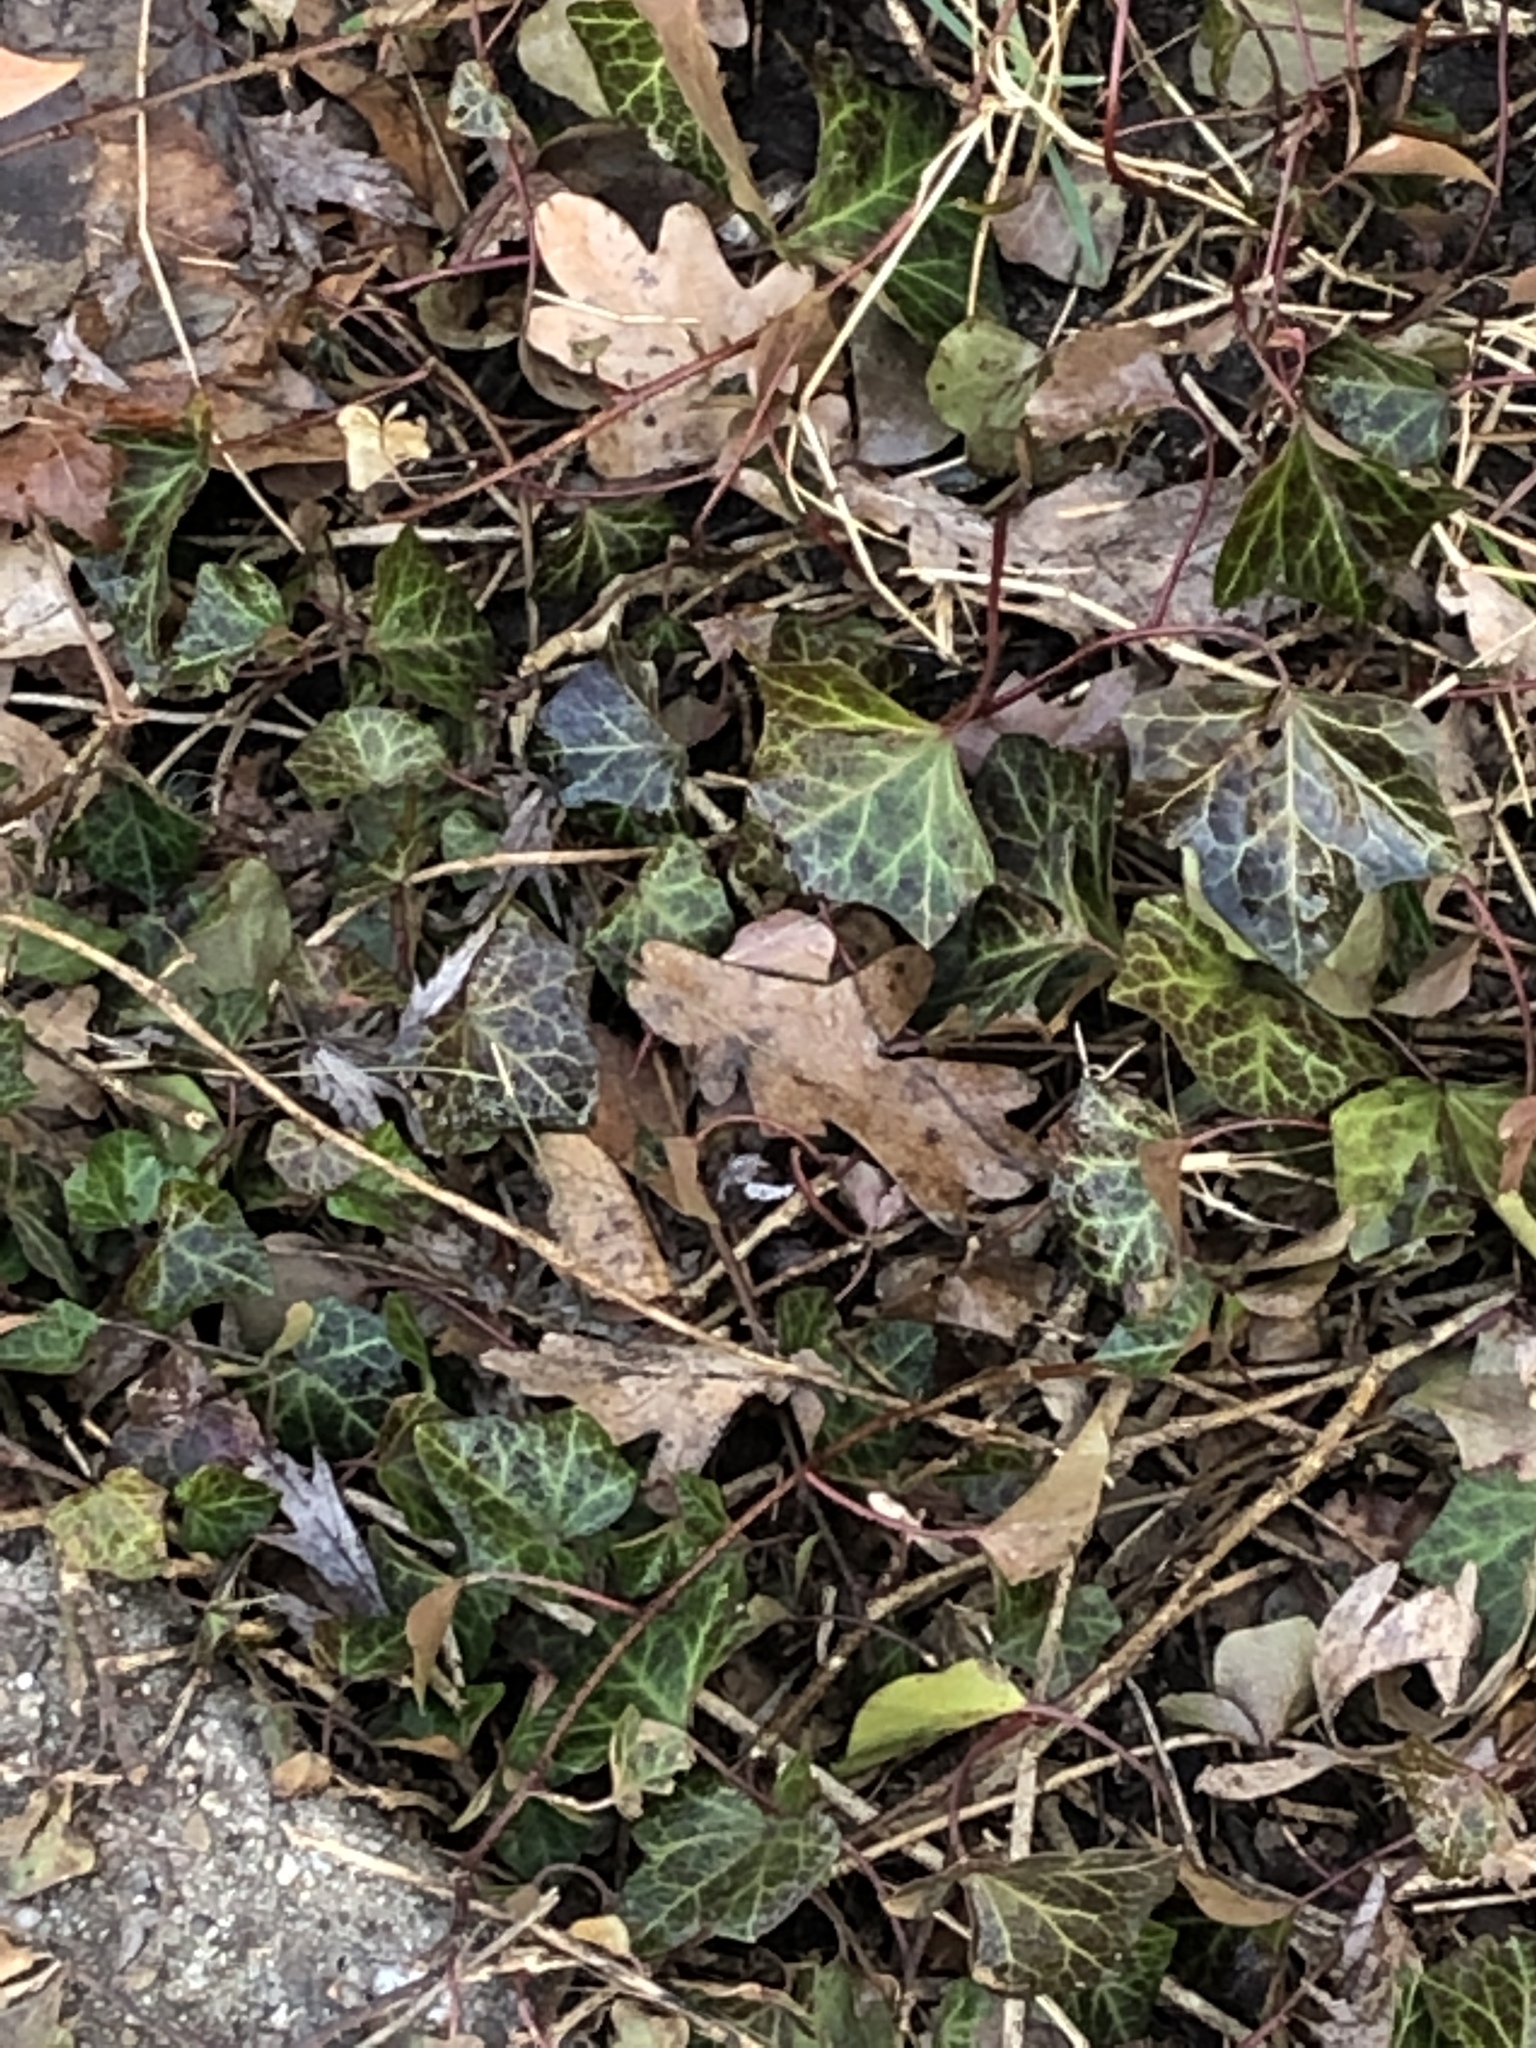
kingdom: Plantae
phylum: Tracheophyta
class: Magnoliopsida
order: Apiales
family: Araliaceae
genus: Hedera
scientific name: Hedera helix
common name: Ivy
